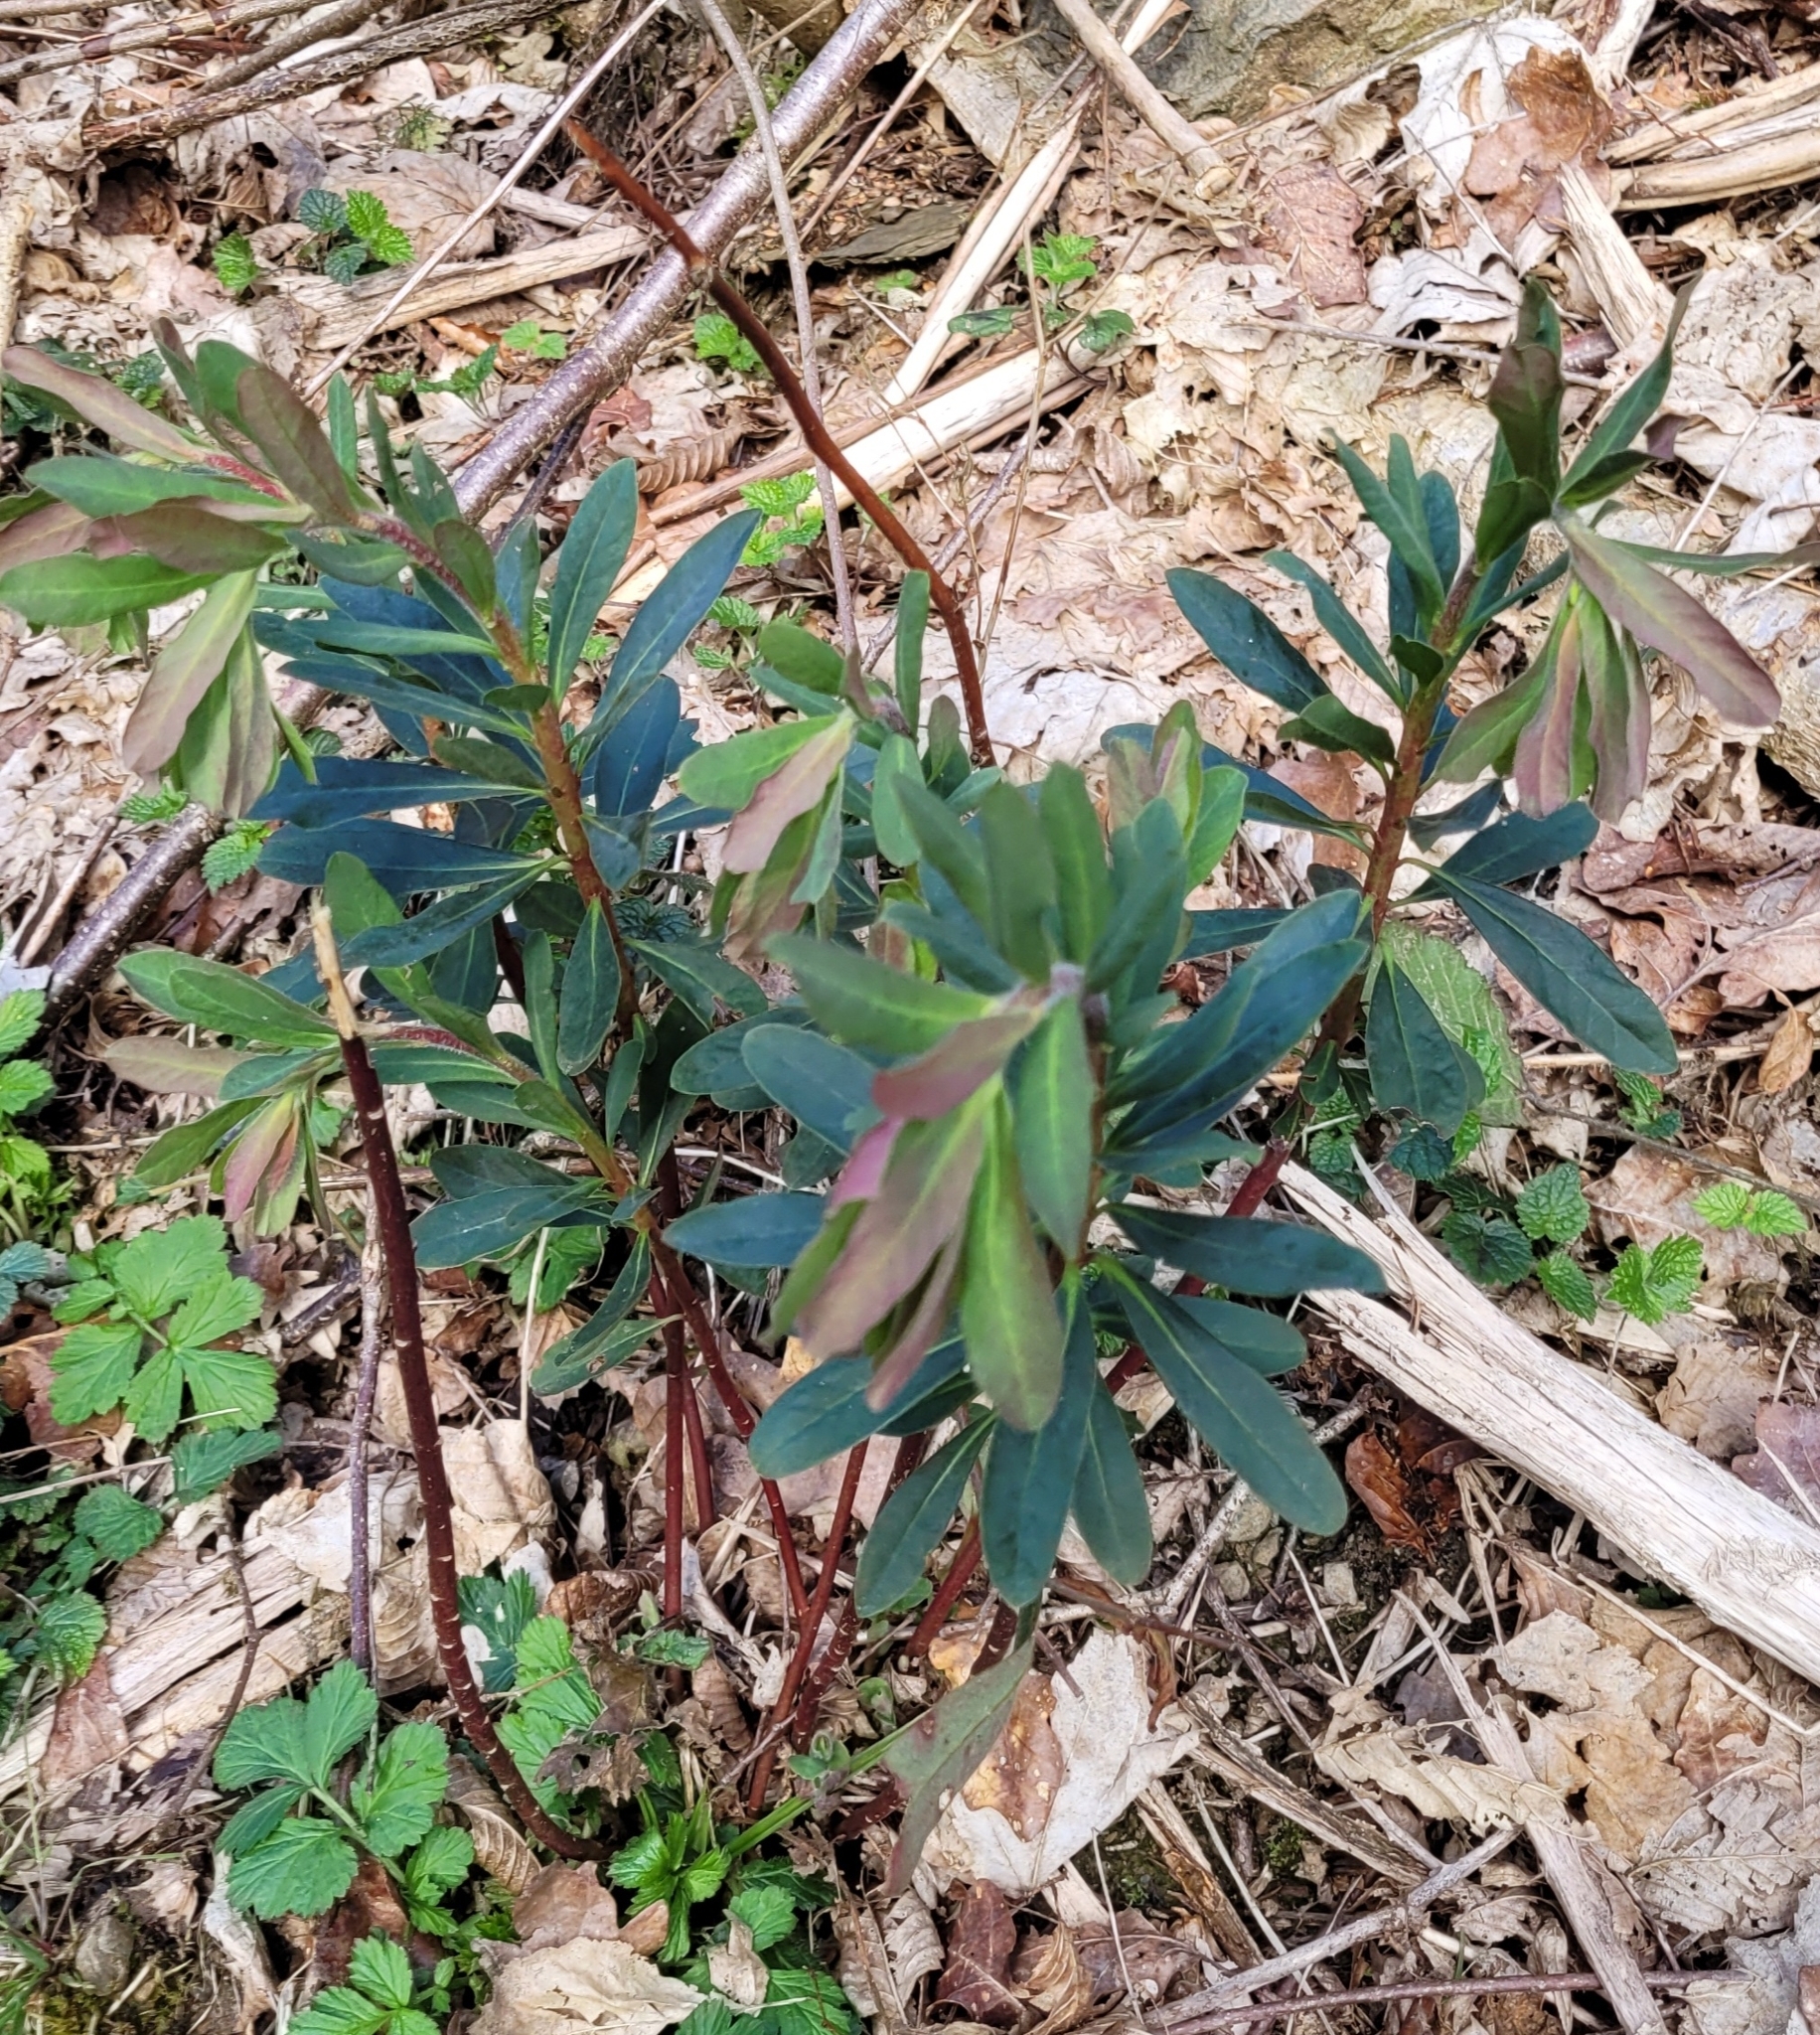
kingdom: Plantae
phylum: Tracheophyta
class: Magnoliopsida
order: Malpighiales
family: Euphorbiaceae
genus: Euphorbia
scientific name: Euphorbia amygdaloides
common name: Wood spurge
